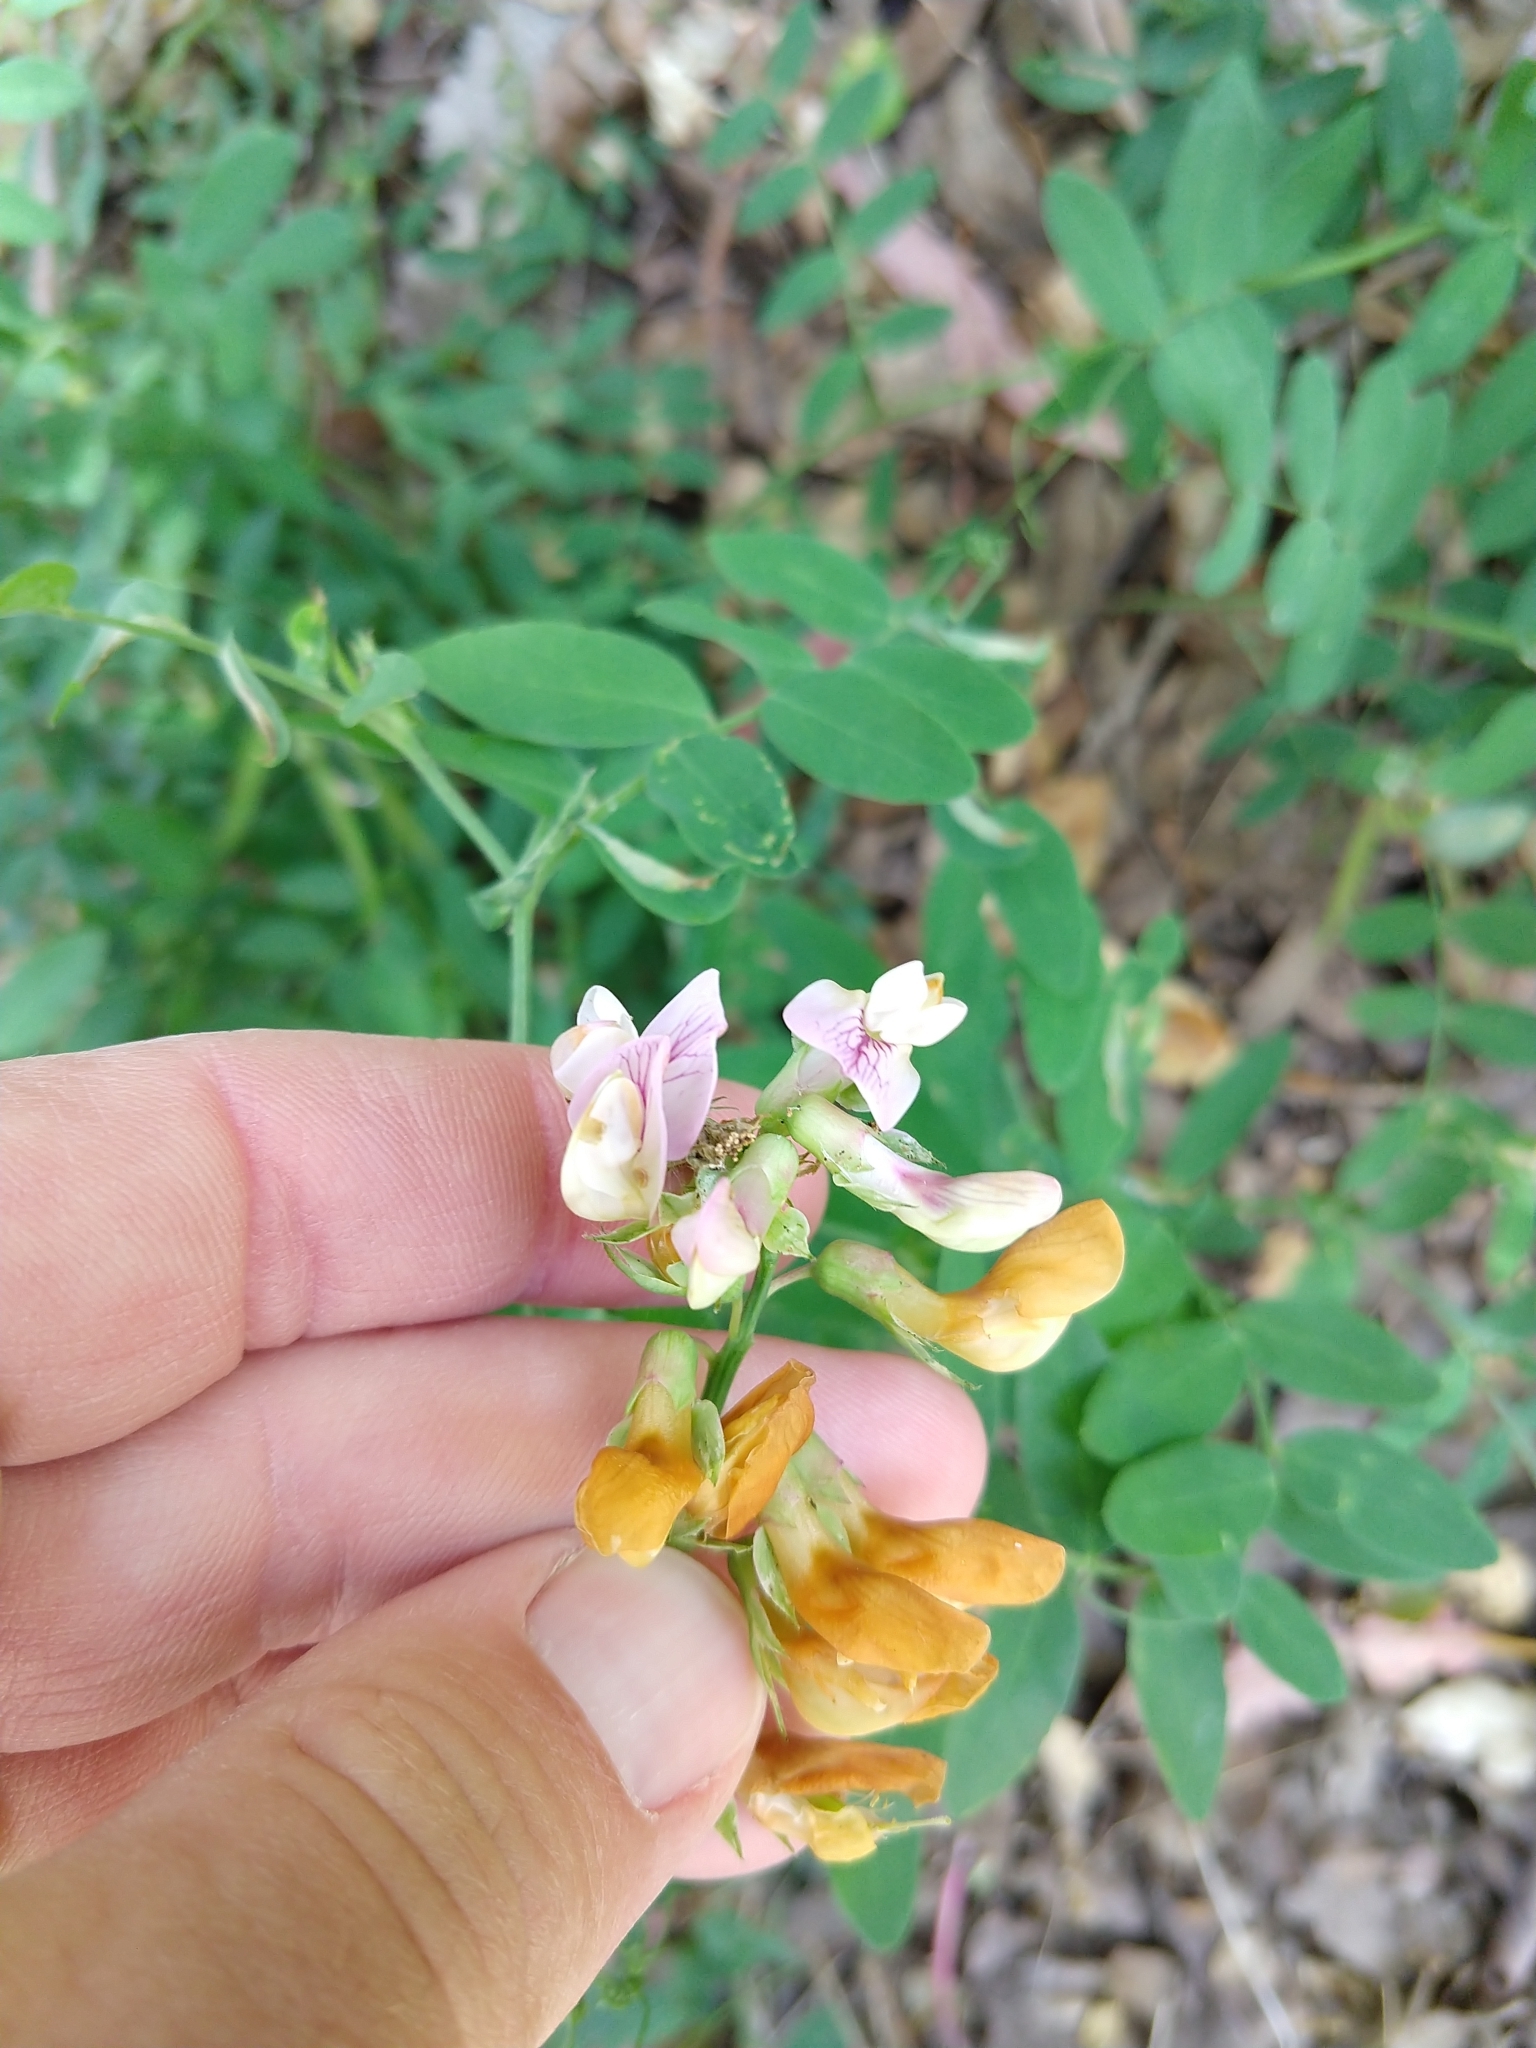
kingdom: Plantae
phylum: Tracheophyta
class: Magnoliopsida
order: Fabales
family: Fabaceae
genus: Lathyrus
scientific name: Lathyrus vestitus
